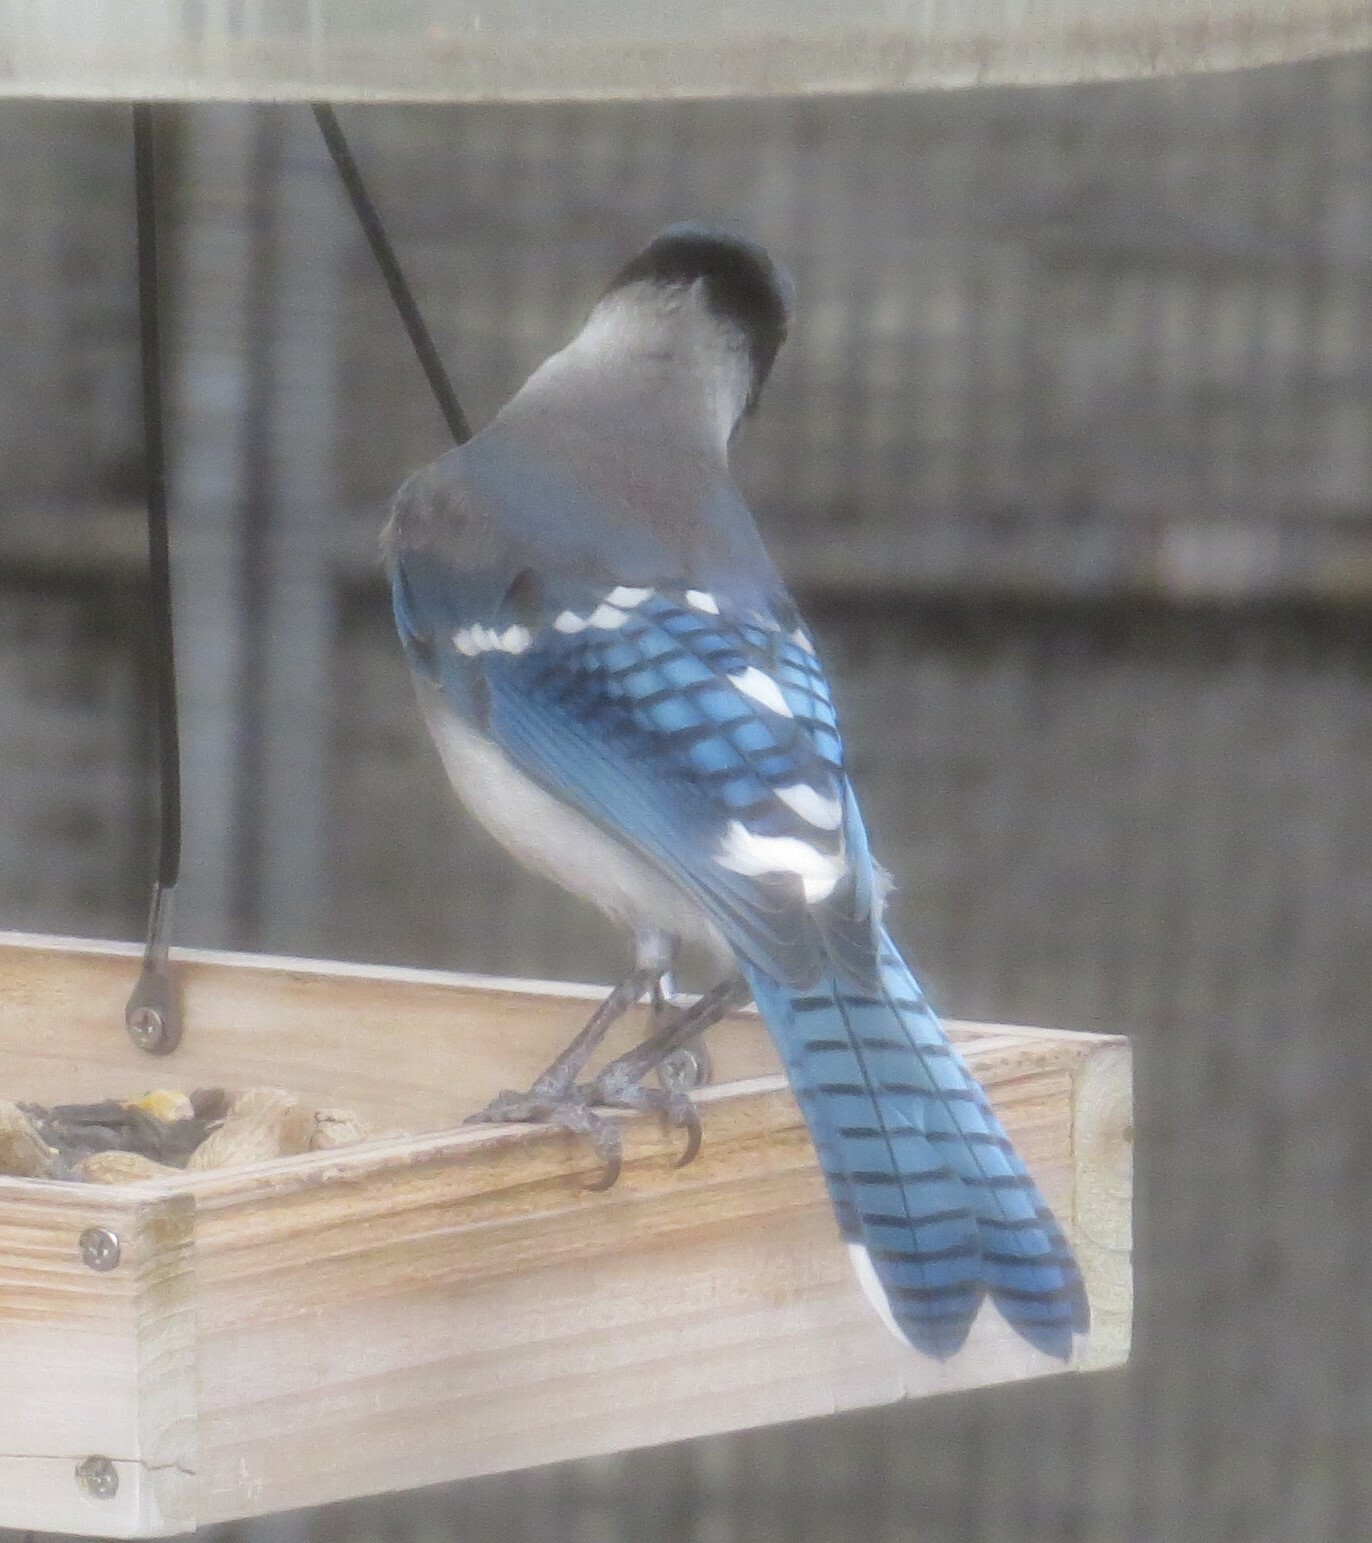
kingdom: Animalia
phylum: Chordata
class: Aves
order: Passeriformes
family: Corvidae
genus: Cyanocitta
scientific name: Cyanocitta cristata
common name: Blue jay
